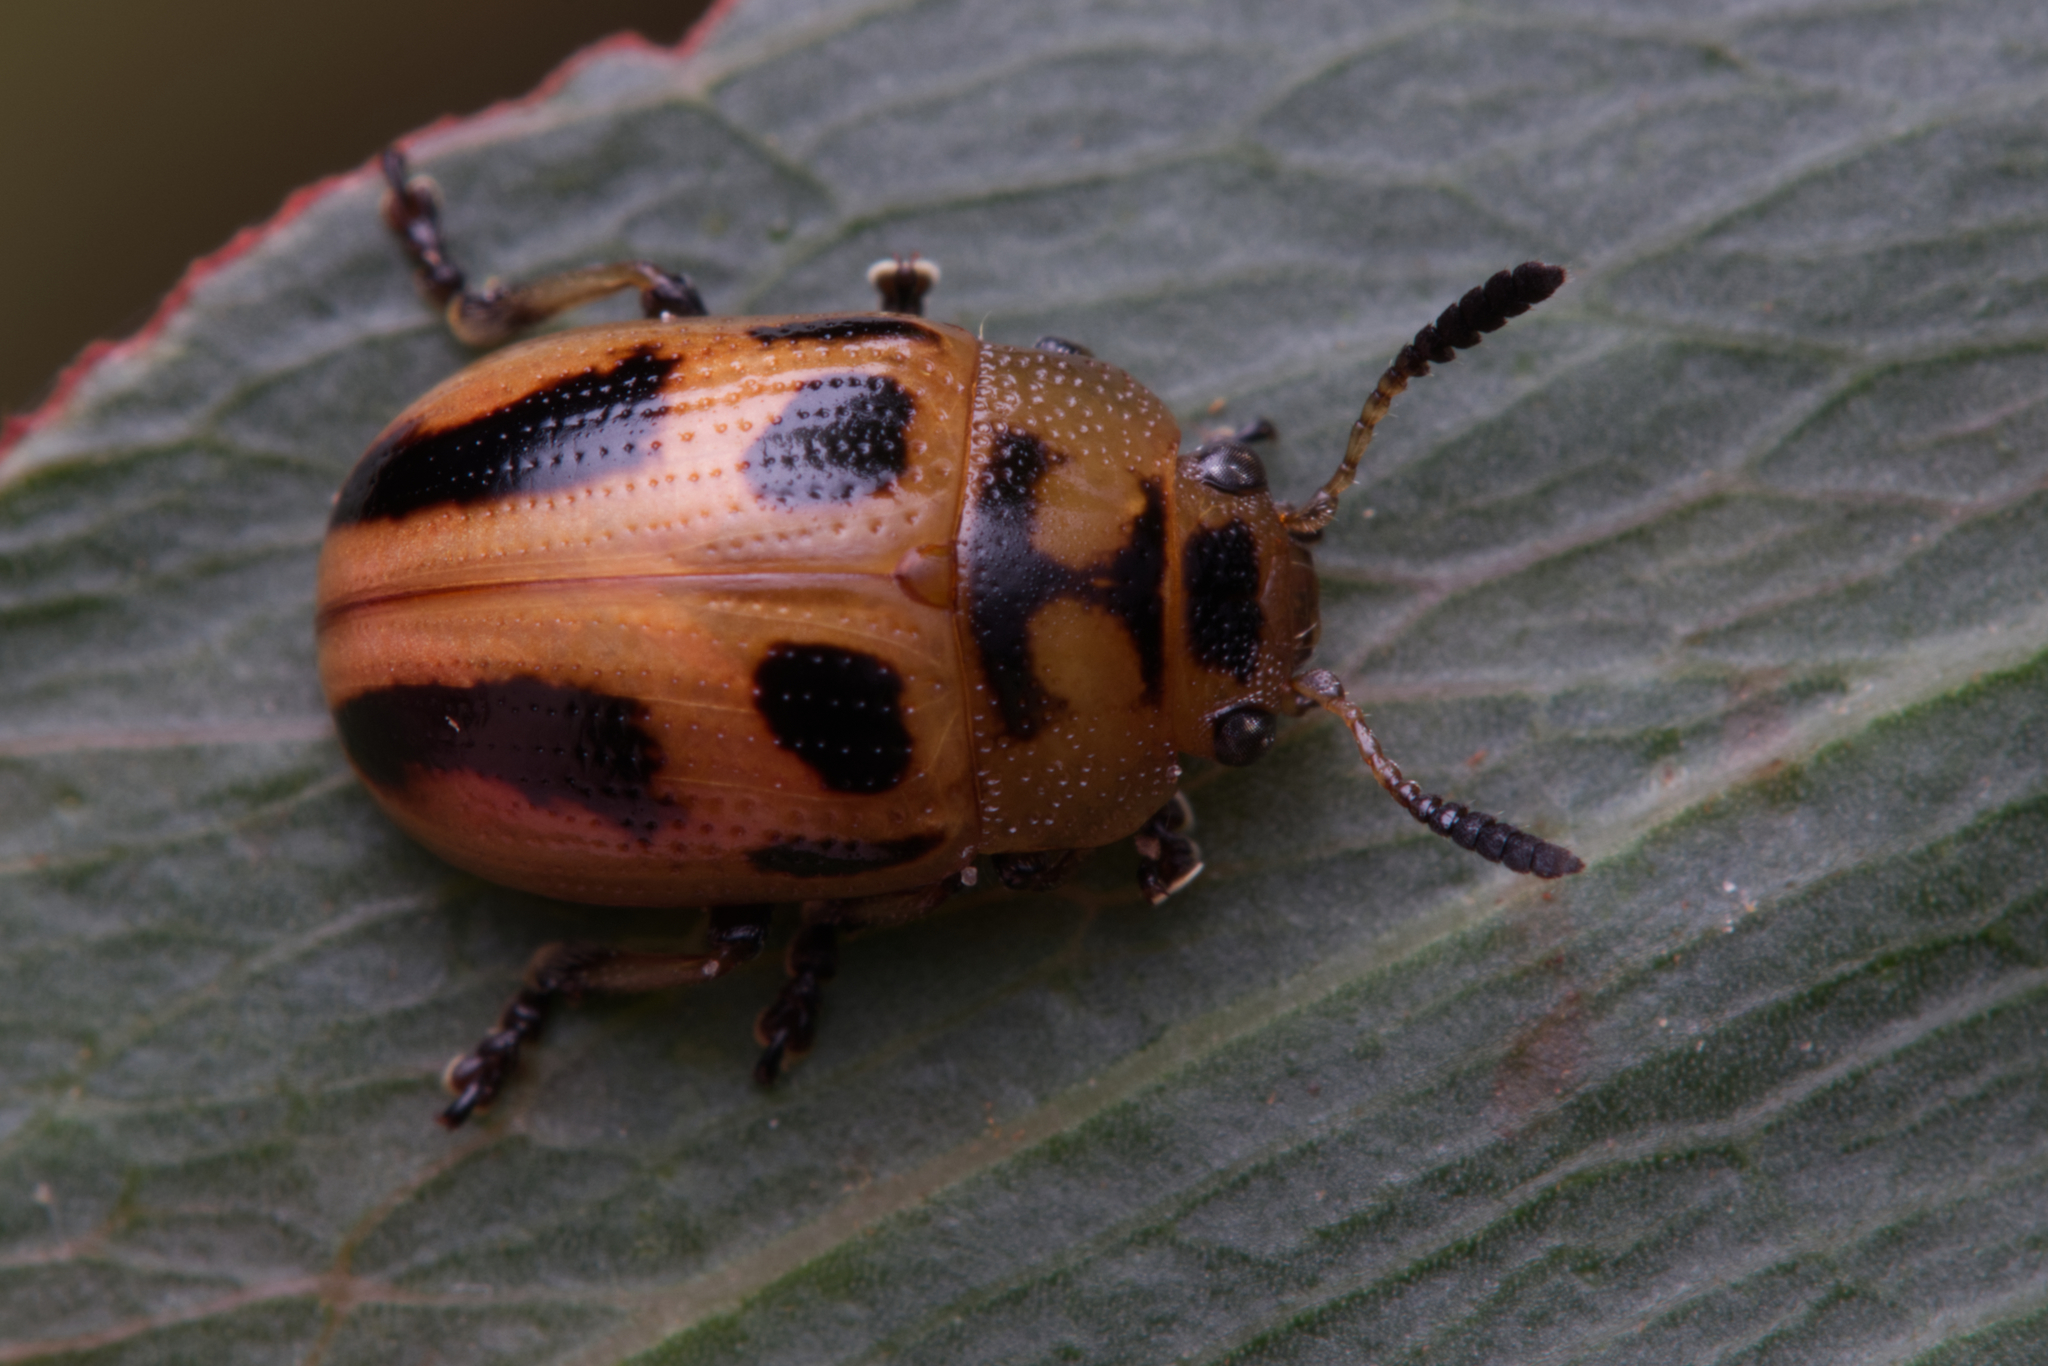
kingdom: Animalia
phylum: Arthropoda
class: Insecta
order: Coleoptera
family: Chrysomelidae
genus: Calomela
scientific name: Calomela
